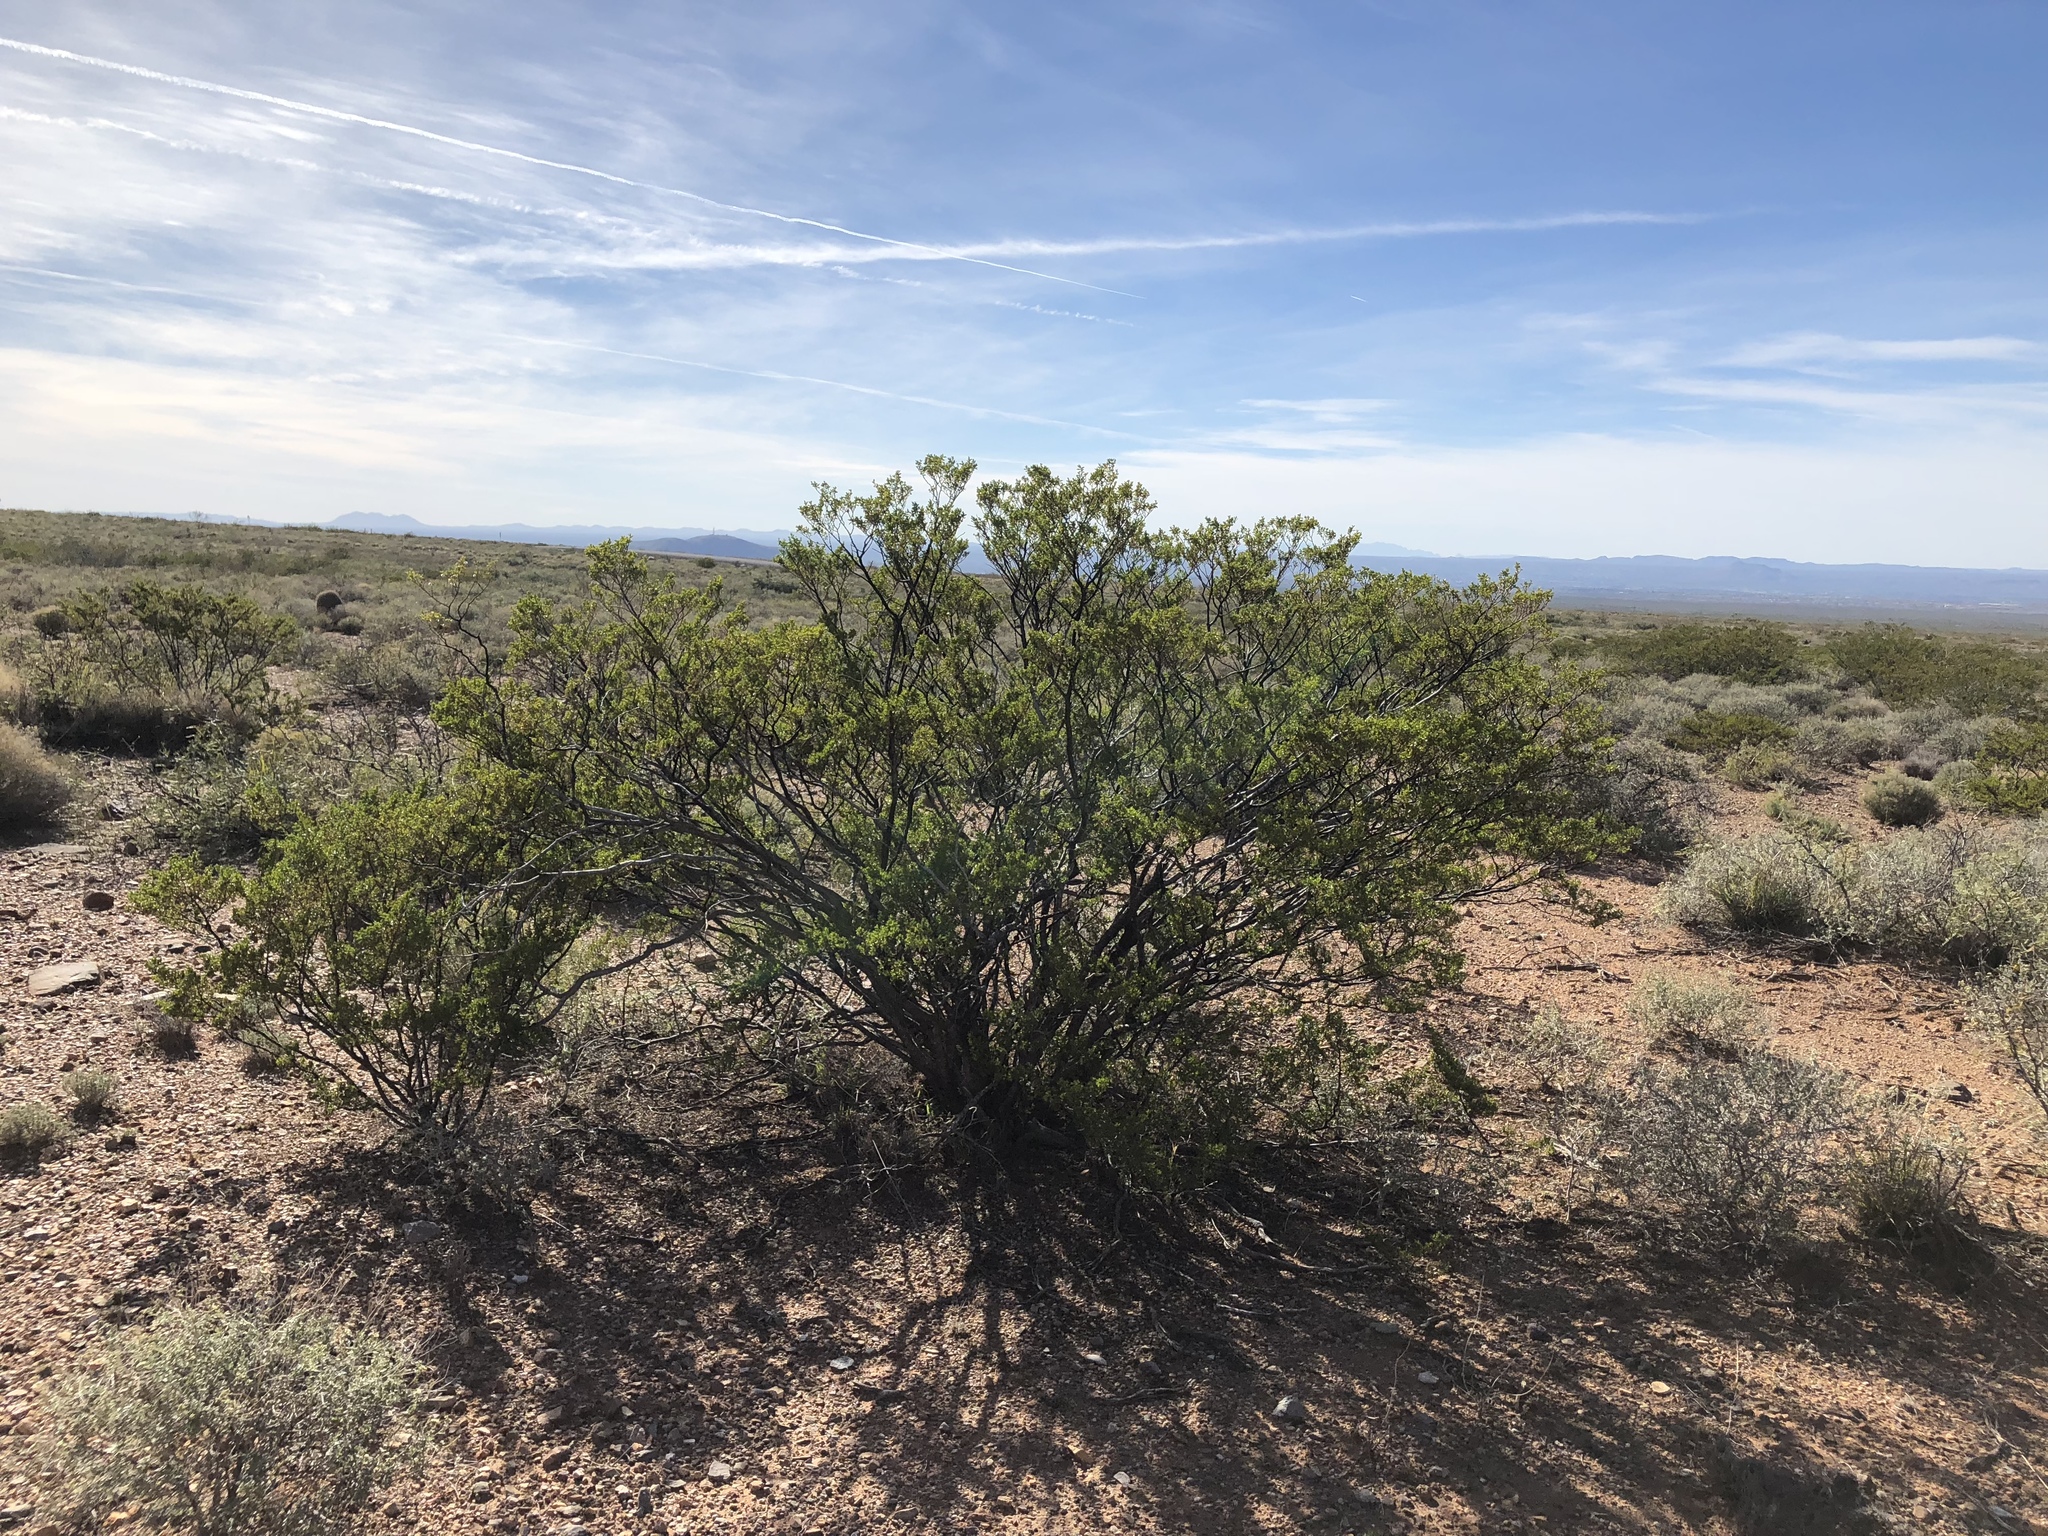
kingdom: Plantae
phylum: Tracheophyta
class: Magnoliopsida
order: Zygophyllales
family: Zygophyllaceae
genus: Larrea
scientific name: Larrea tridentata
